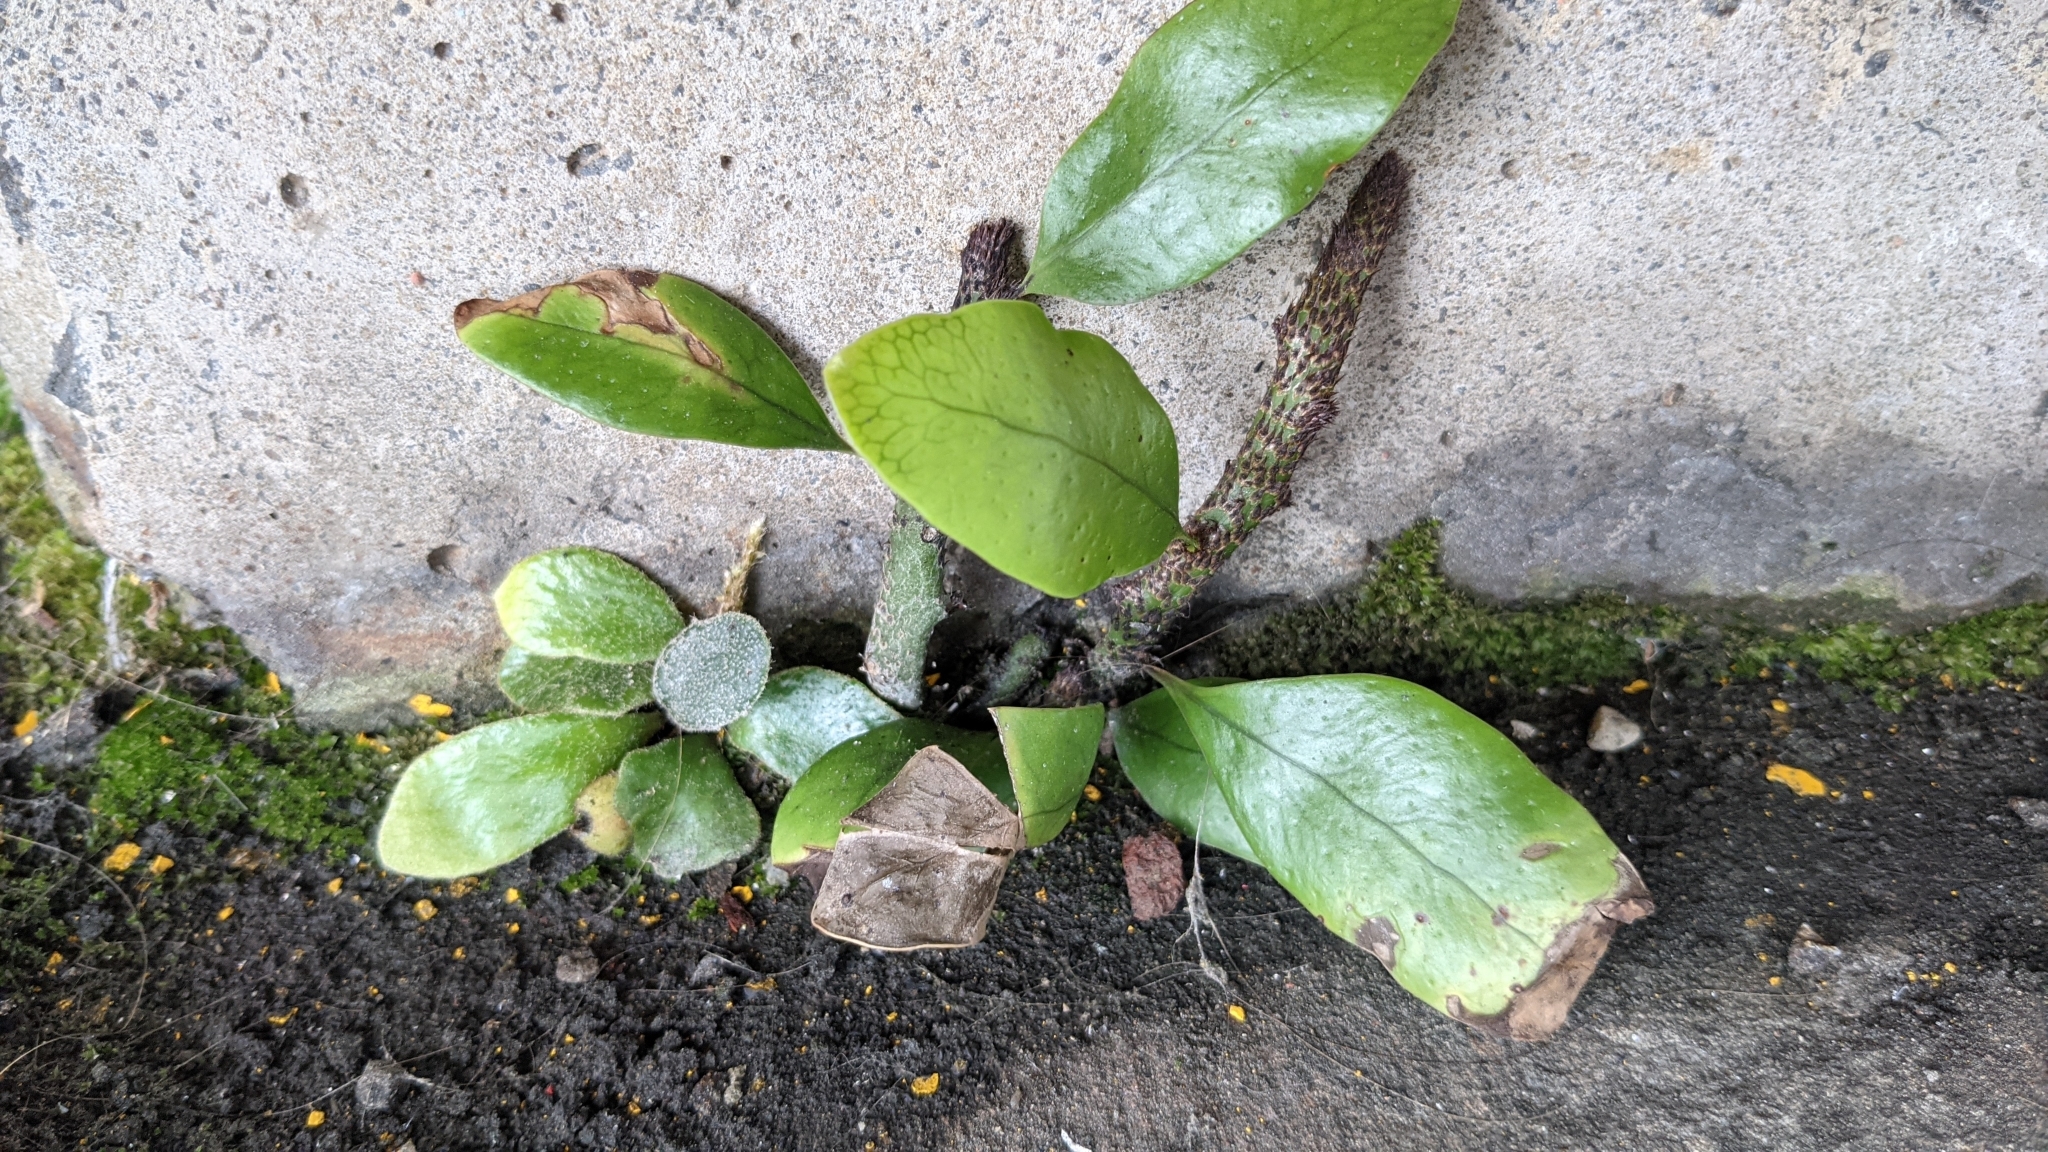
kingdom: Plantae
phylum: Tracheophyta
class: Polypodiopsida
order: Polypodiales
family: Polypodiaceae
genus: Lecanopteris
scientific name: Lecanopteris pustulata
